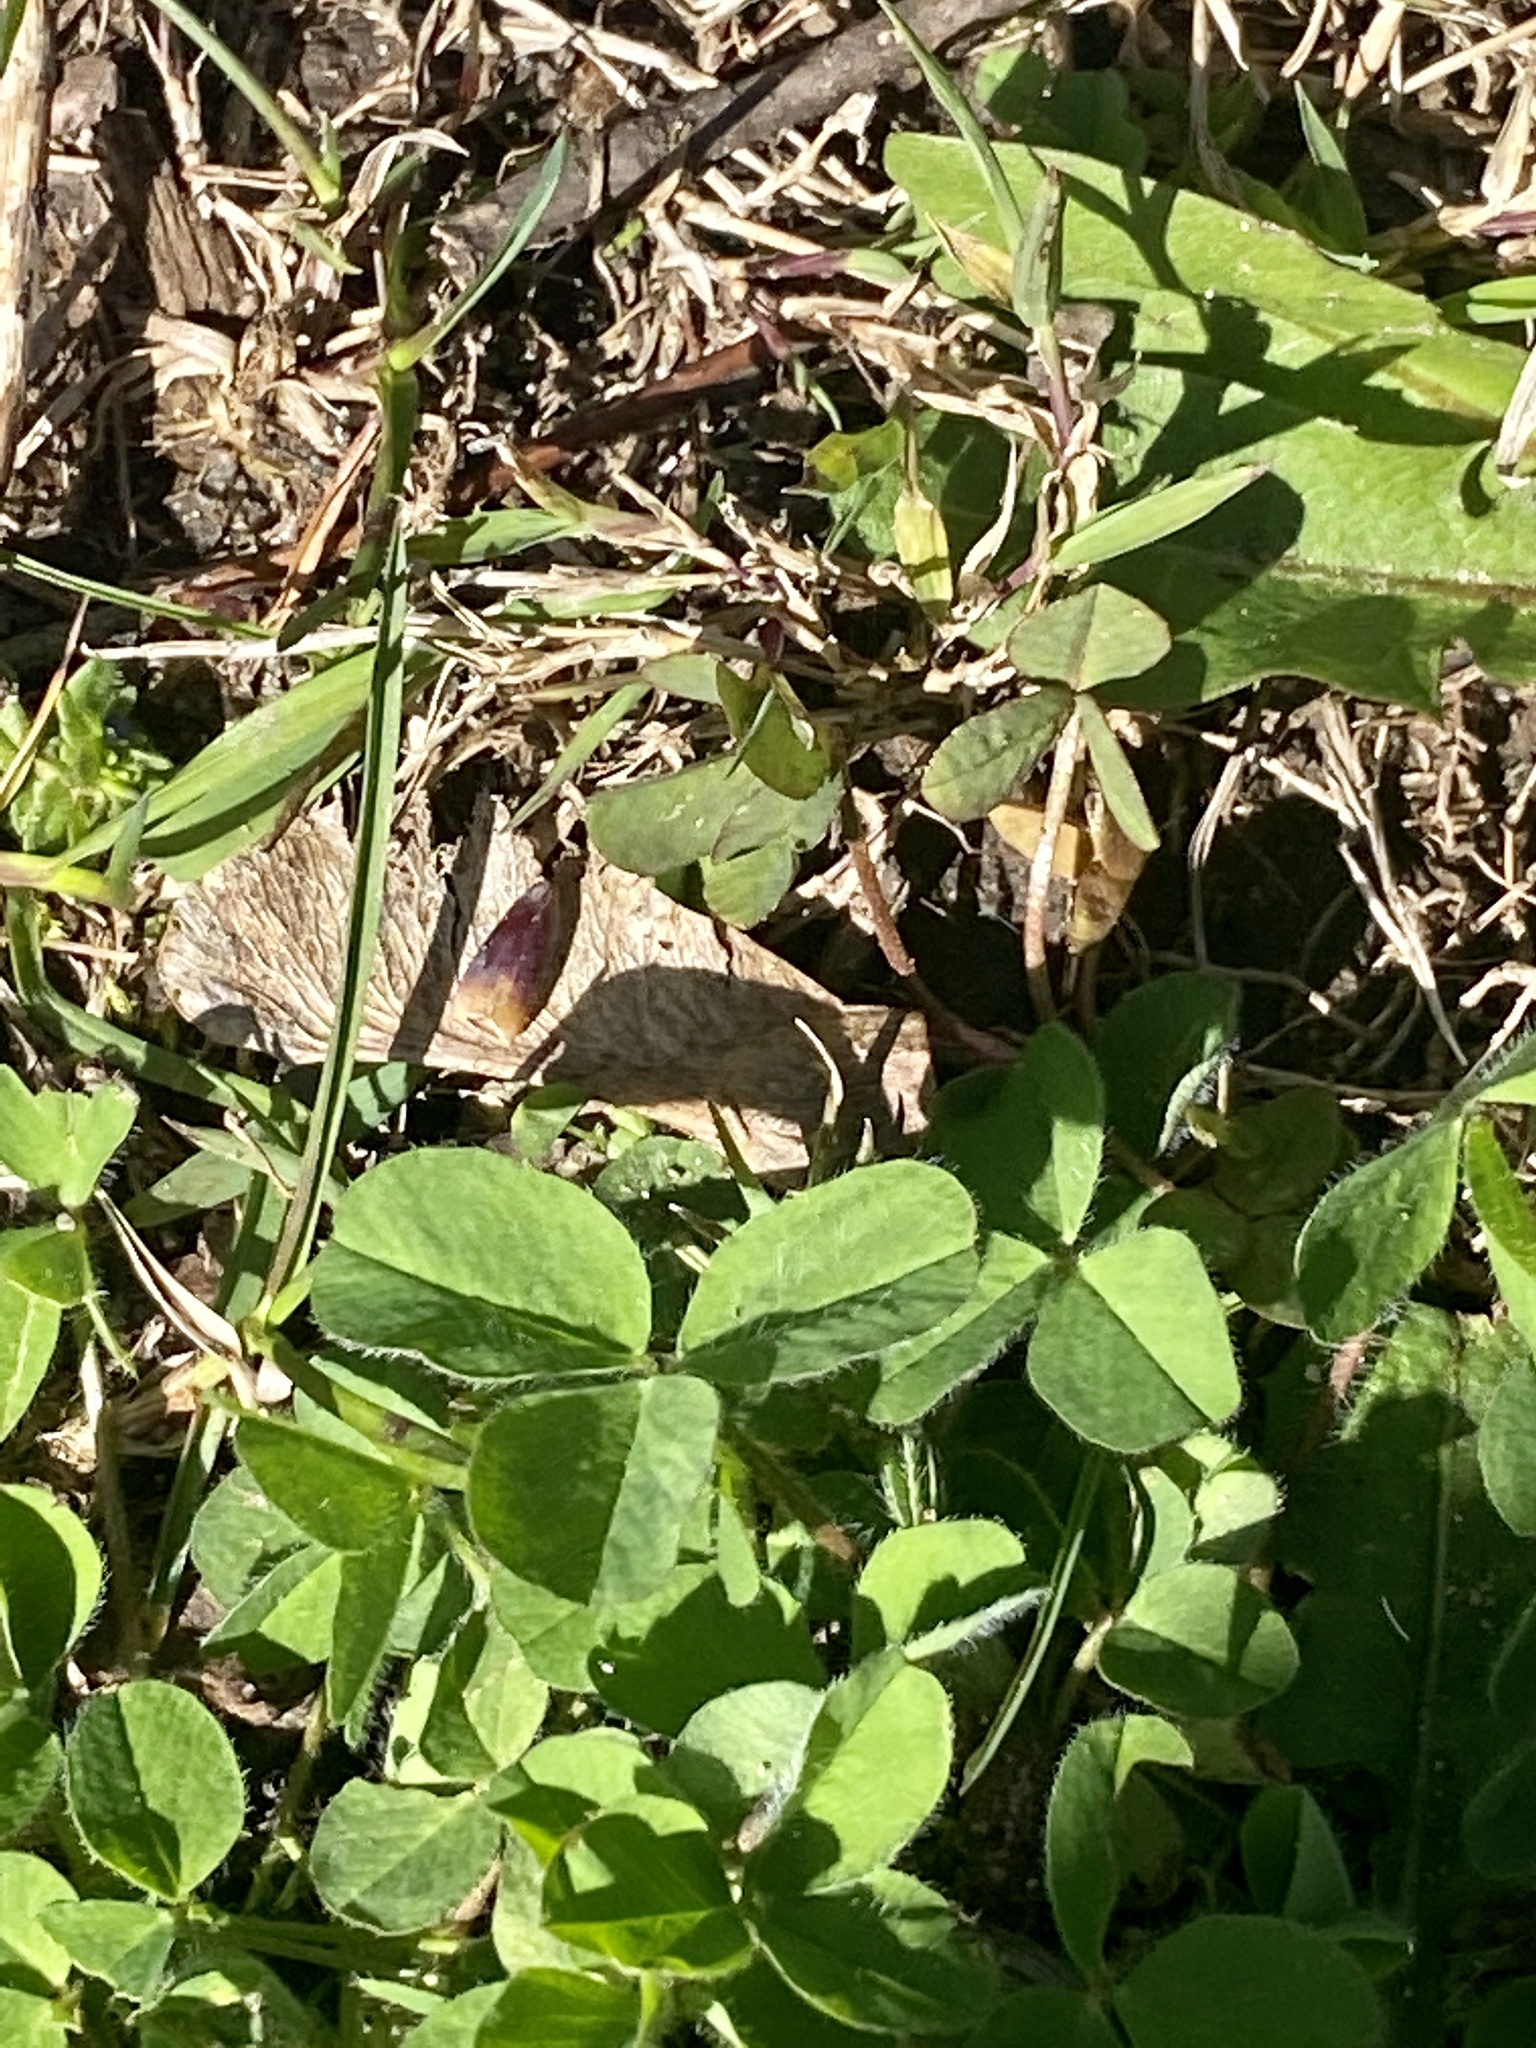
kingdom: Plantae
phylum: Tracheophyta
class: Magnoliopsida
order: Fabales
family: Fabaceae
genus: Trifolium
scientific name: Trifolium pratense
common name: Red clover
